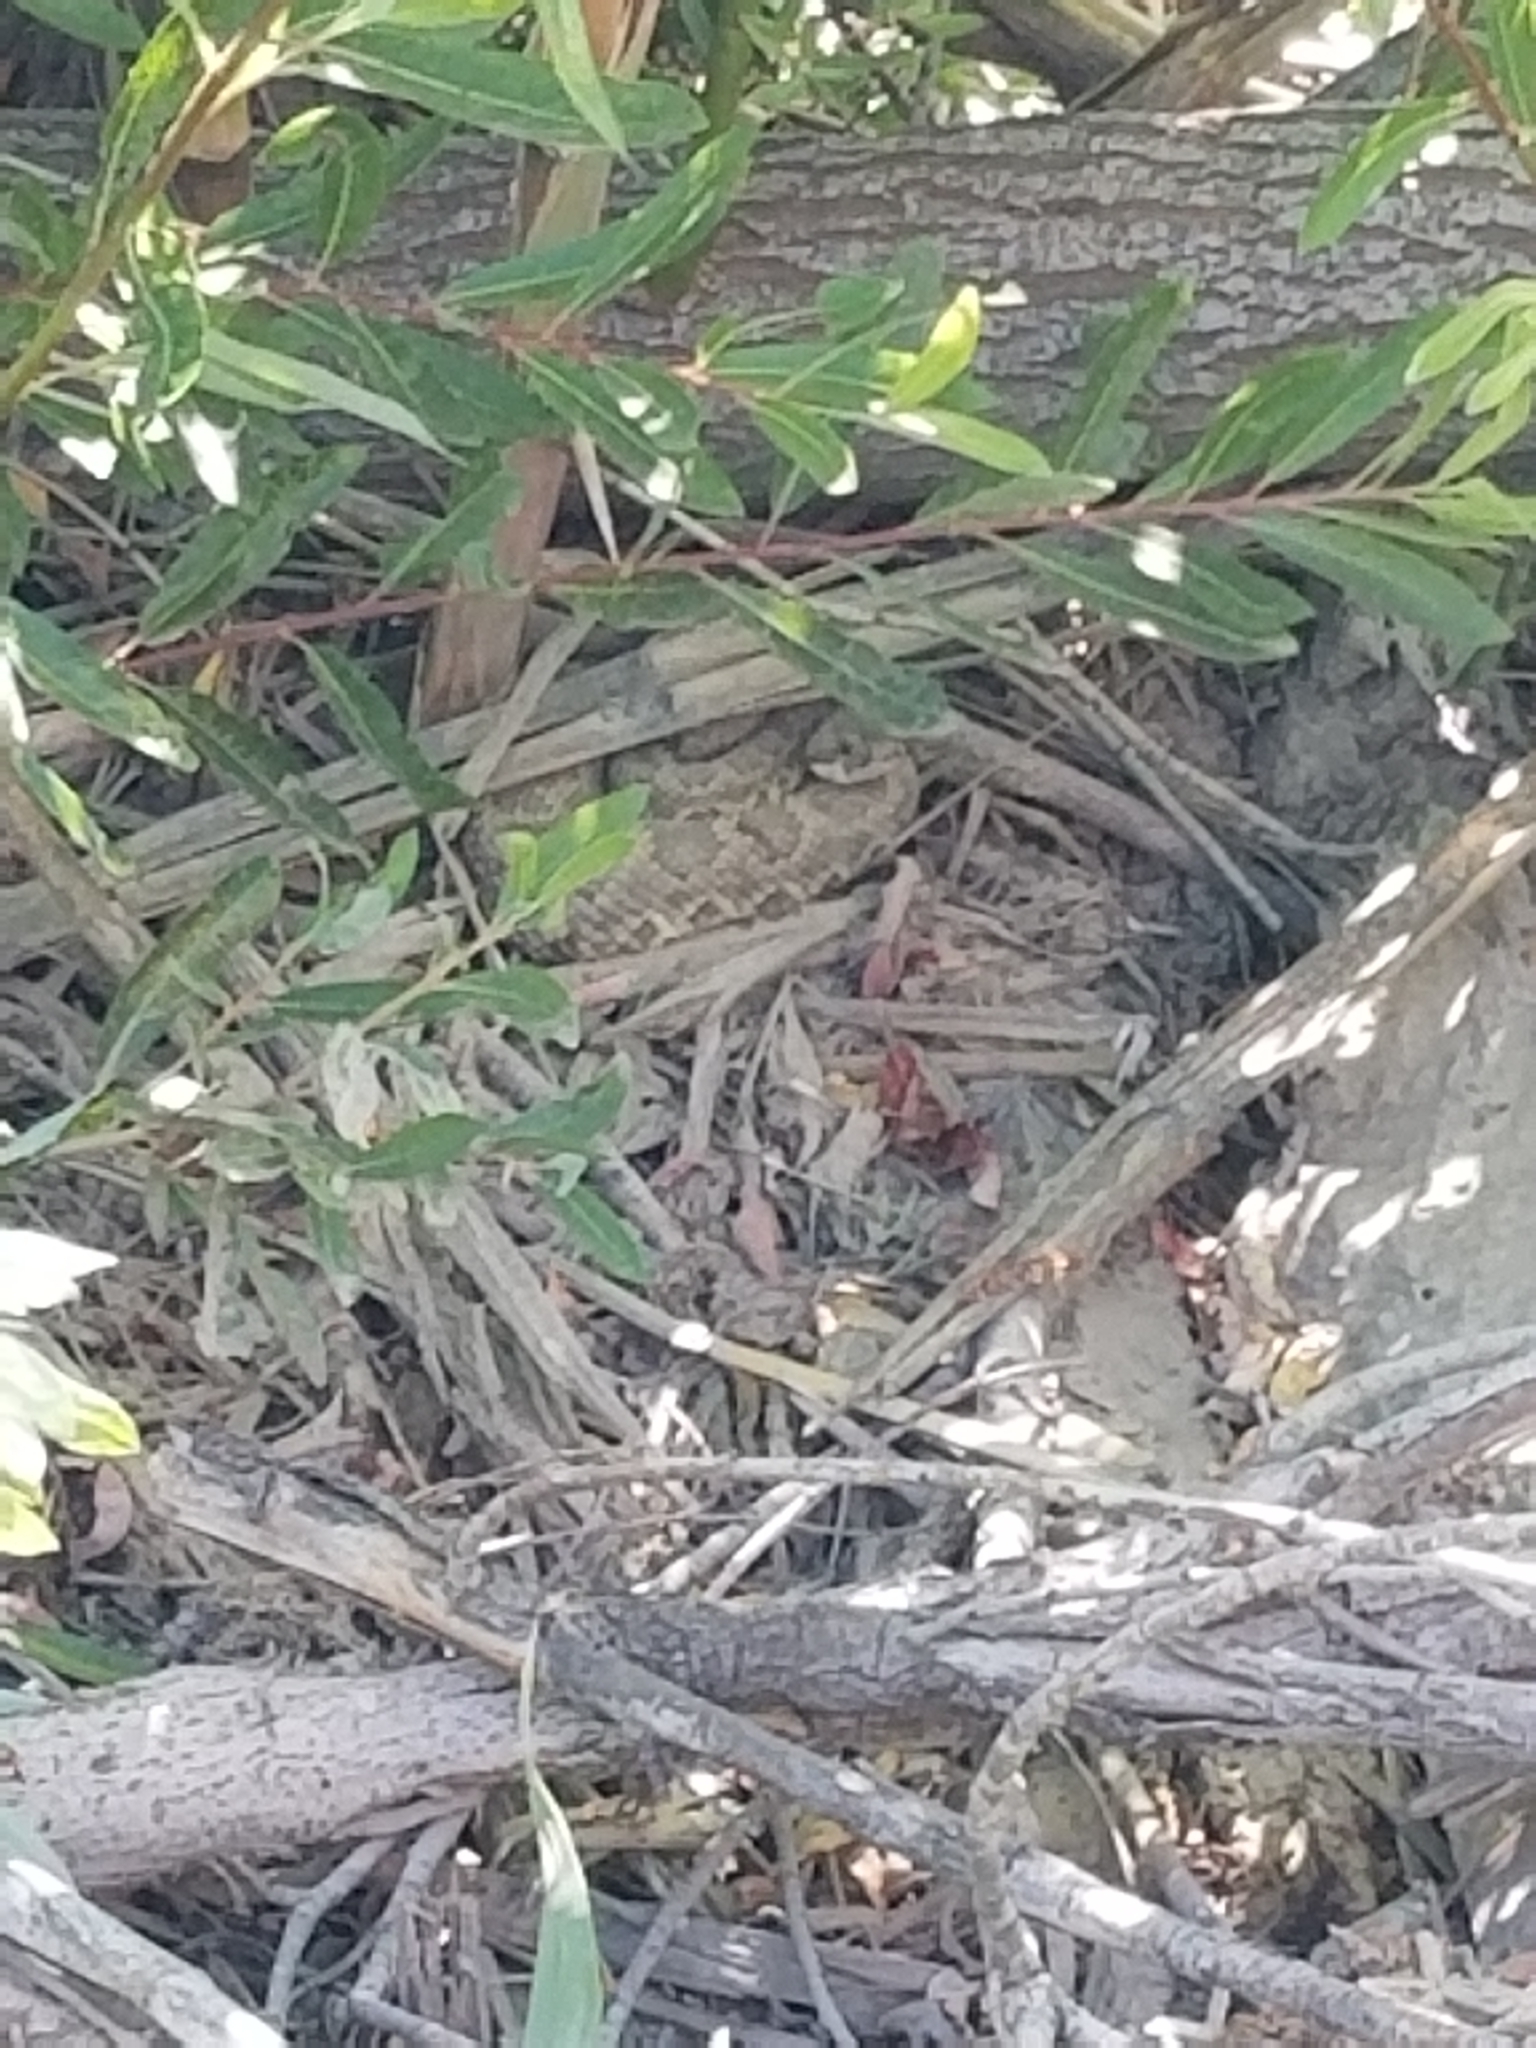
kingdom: Animalia
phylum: Chordata
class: Squamata
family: Viperidae
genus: Crotalus
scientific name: Crotalus oreganus
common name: Abyssus
